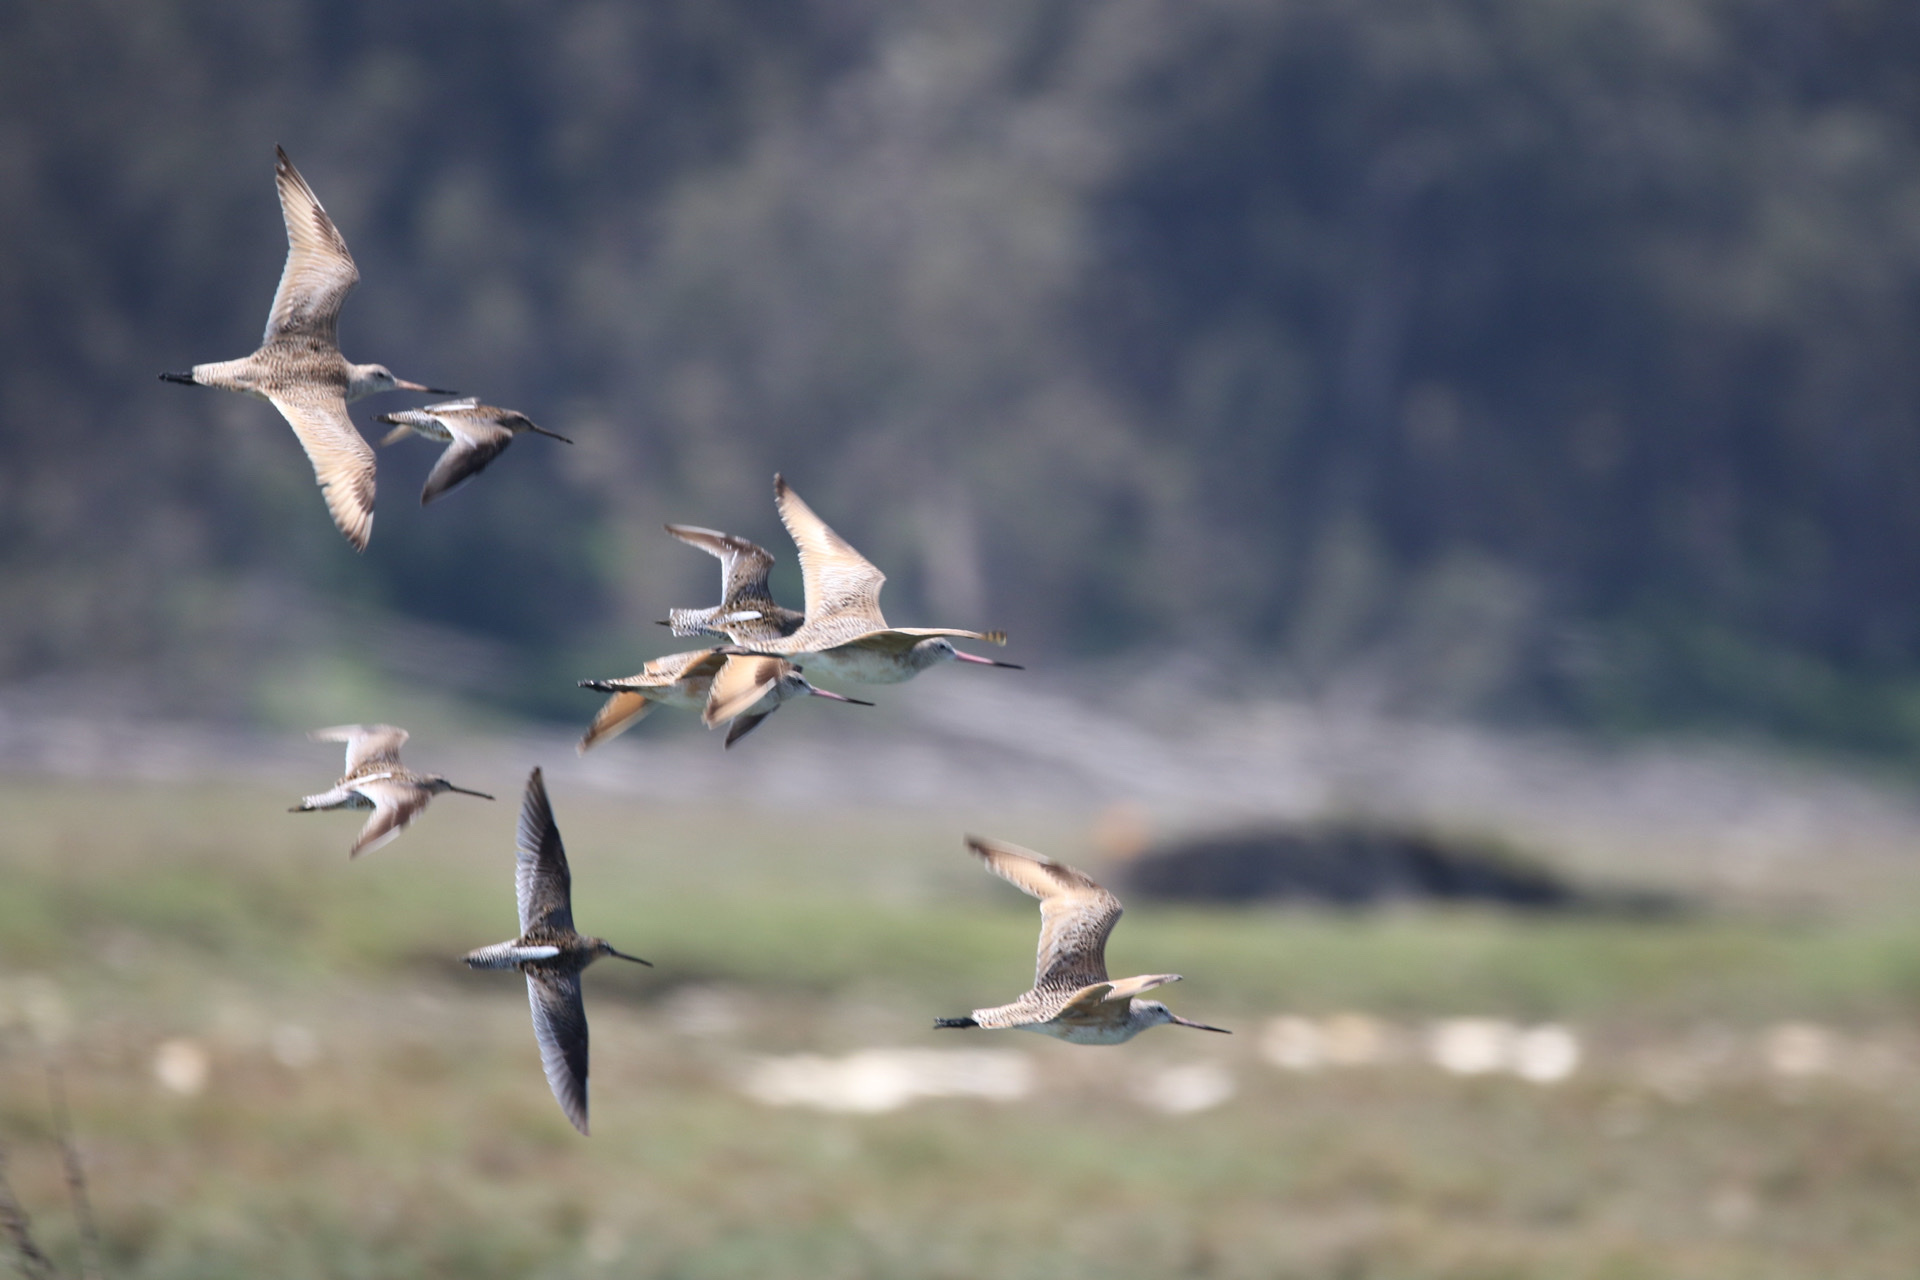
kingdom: Animalia
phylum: Chordata
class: Aves
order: Charadriiformes
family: Scolopacidae
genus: Limnodromus
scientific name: Limnodromus griseus
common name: Short-billed dowitcher
